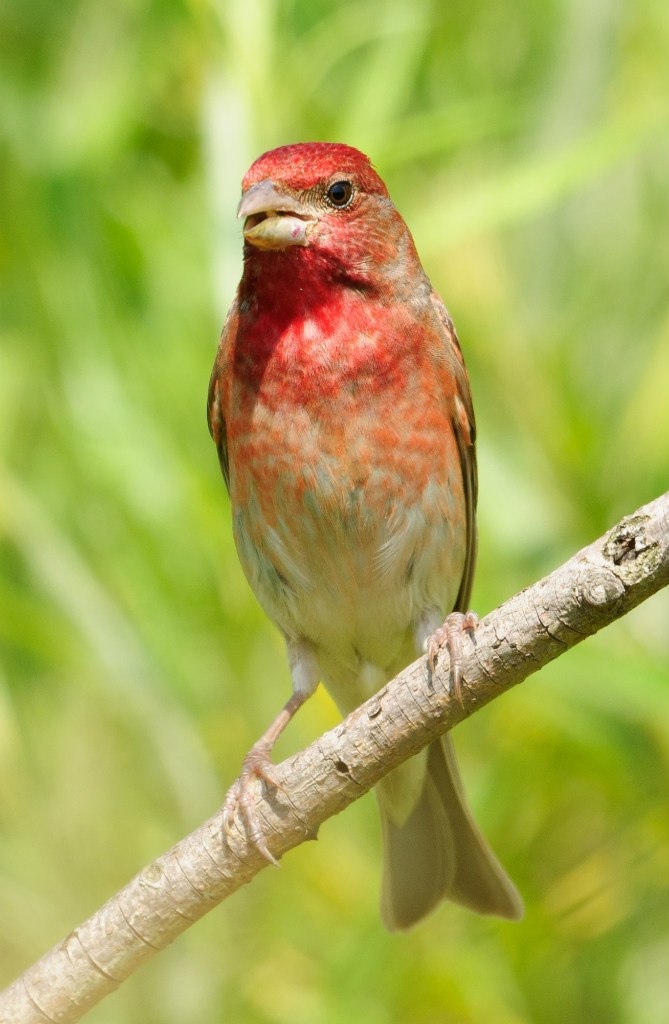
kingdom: Animalia
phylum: Chordata
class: Aves
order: Passeriformes
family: Fringillidae
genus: Carpodacus
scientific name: Carpodacus erythrinus
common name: Common rosefinch
